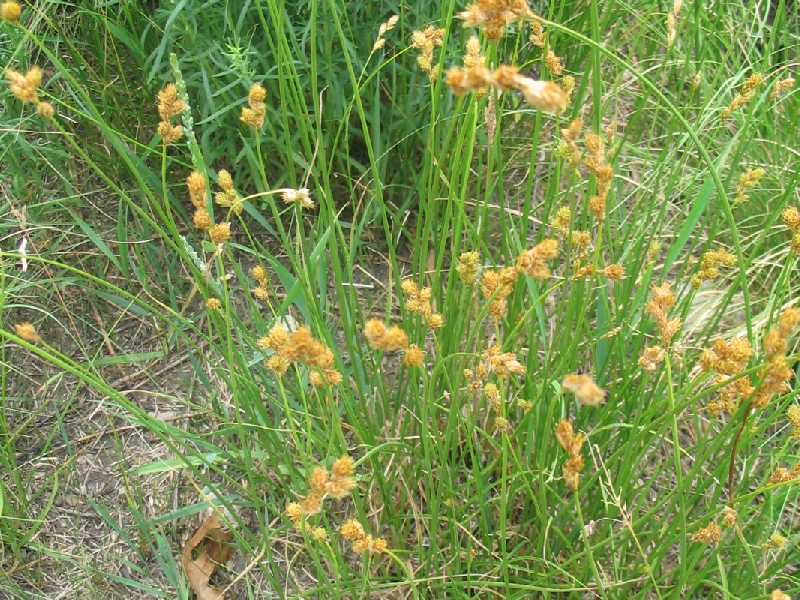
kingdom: Plantae
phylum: Tracheophyta
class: Liliopsida
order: Poales
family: Cyperaceae
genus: Carex
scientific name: Carex cristatella
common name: Crested oval sedge
